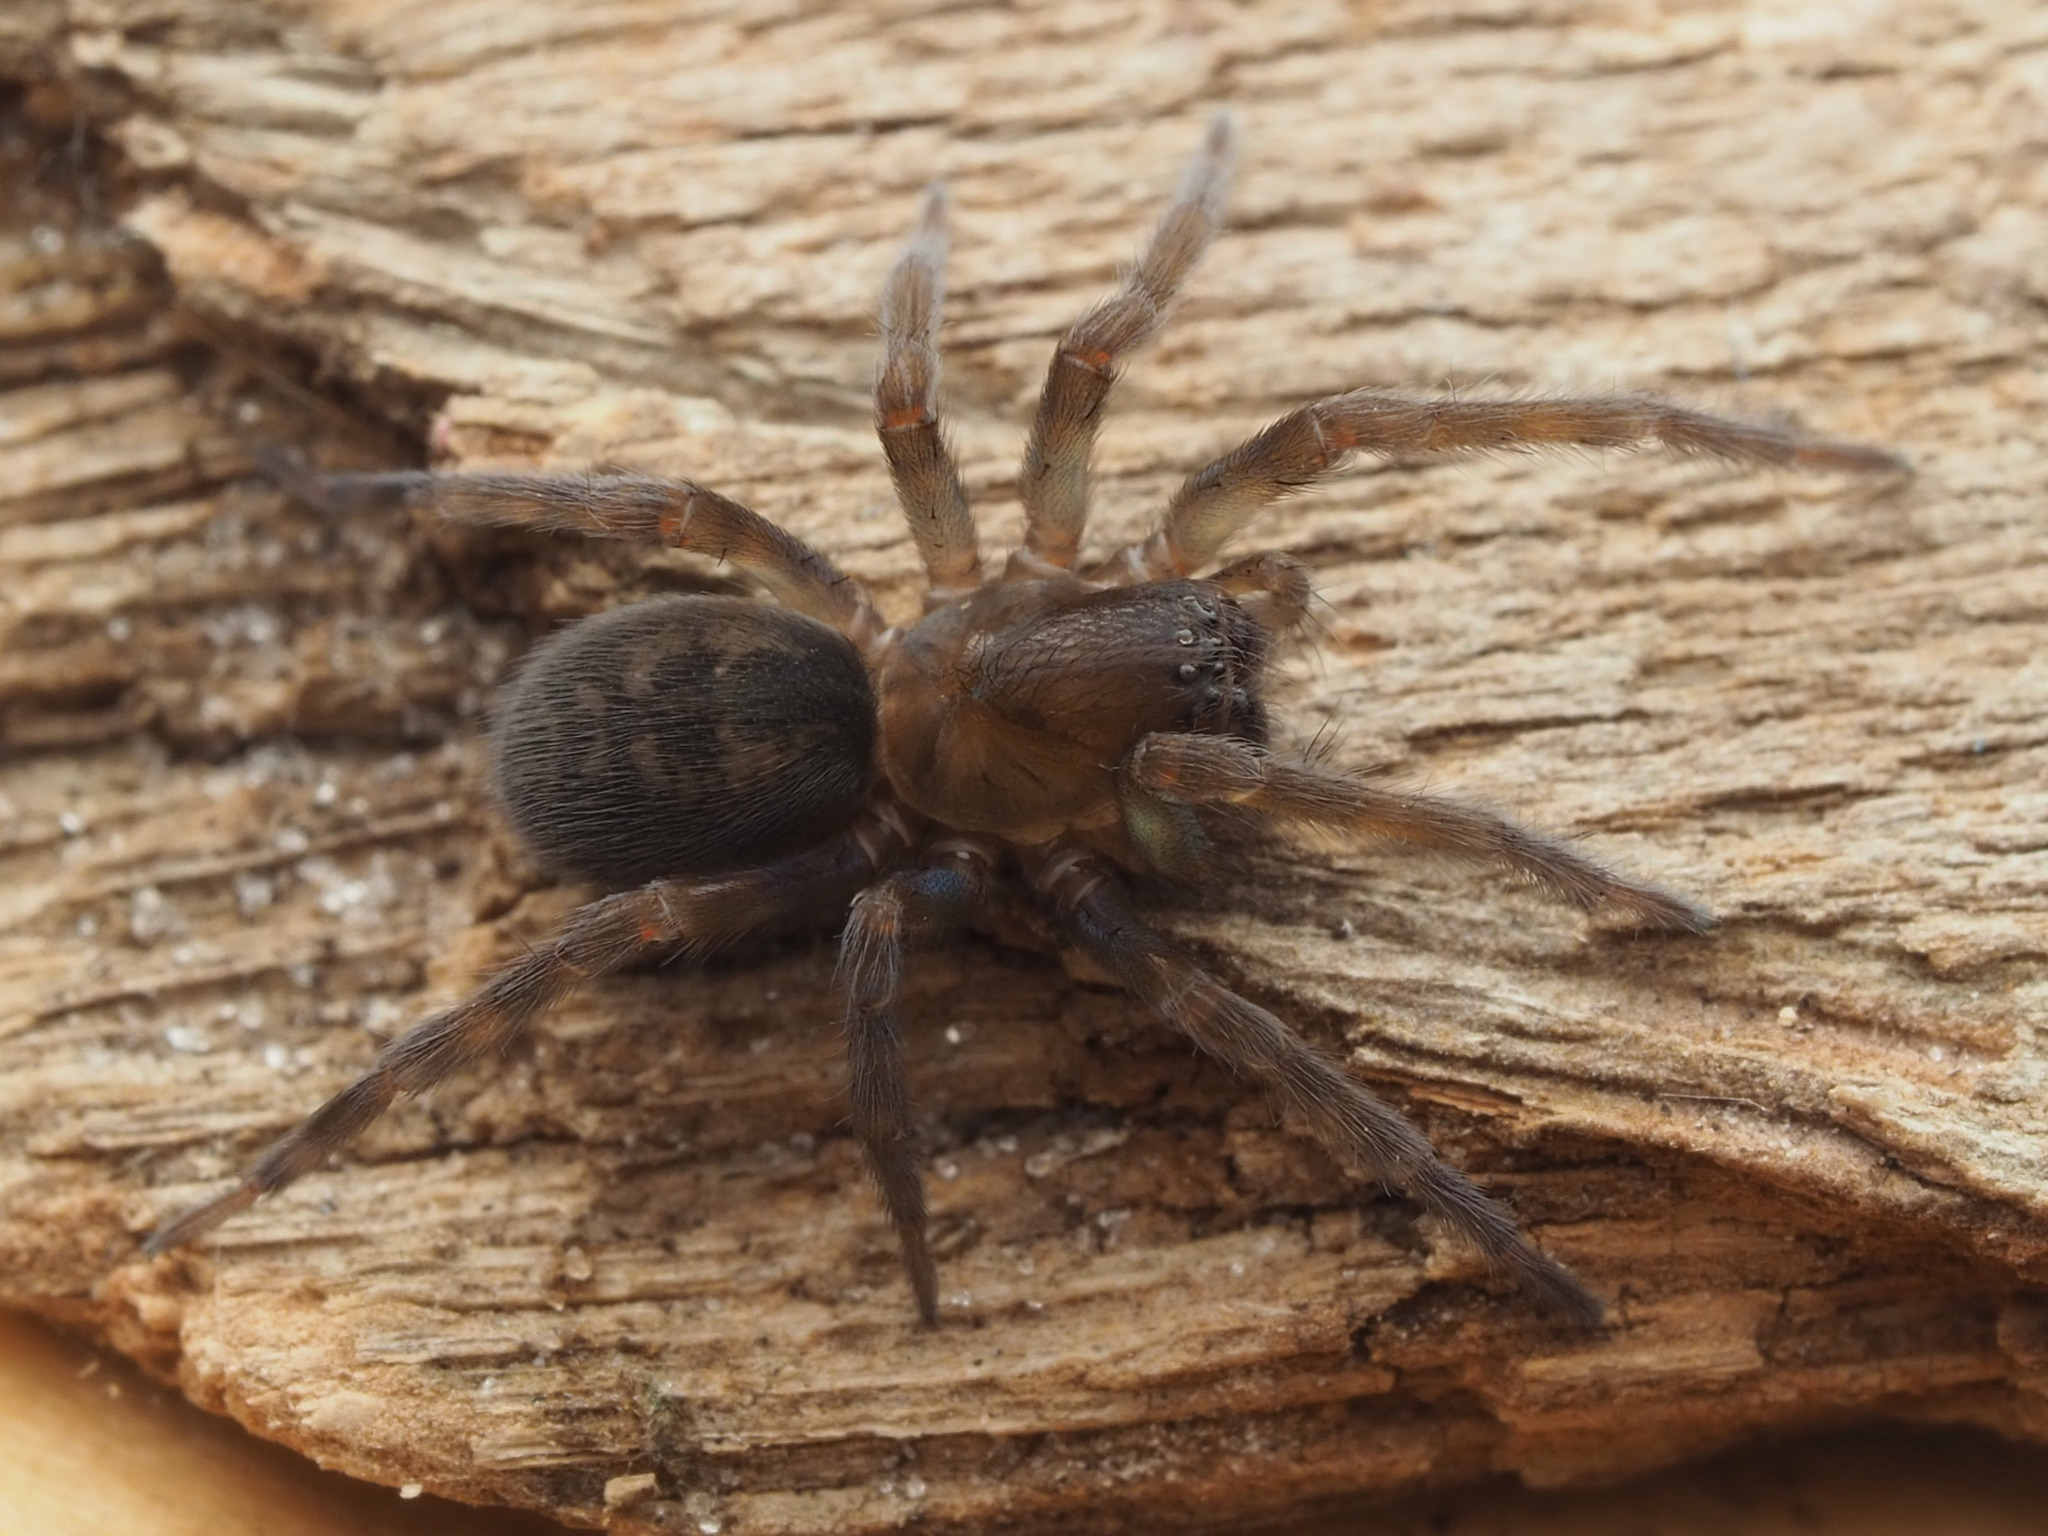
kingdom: Animalia
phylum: Arthropoda
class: Arachnida
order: Araneae
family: Amaurobiidae
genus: Amaurobius
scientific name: Amaurobius ferox
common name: Black laceweaver
